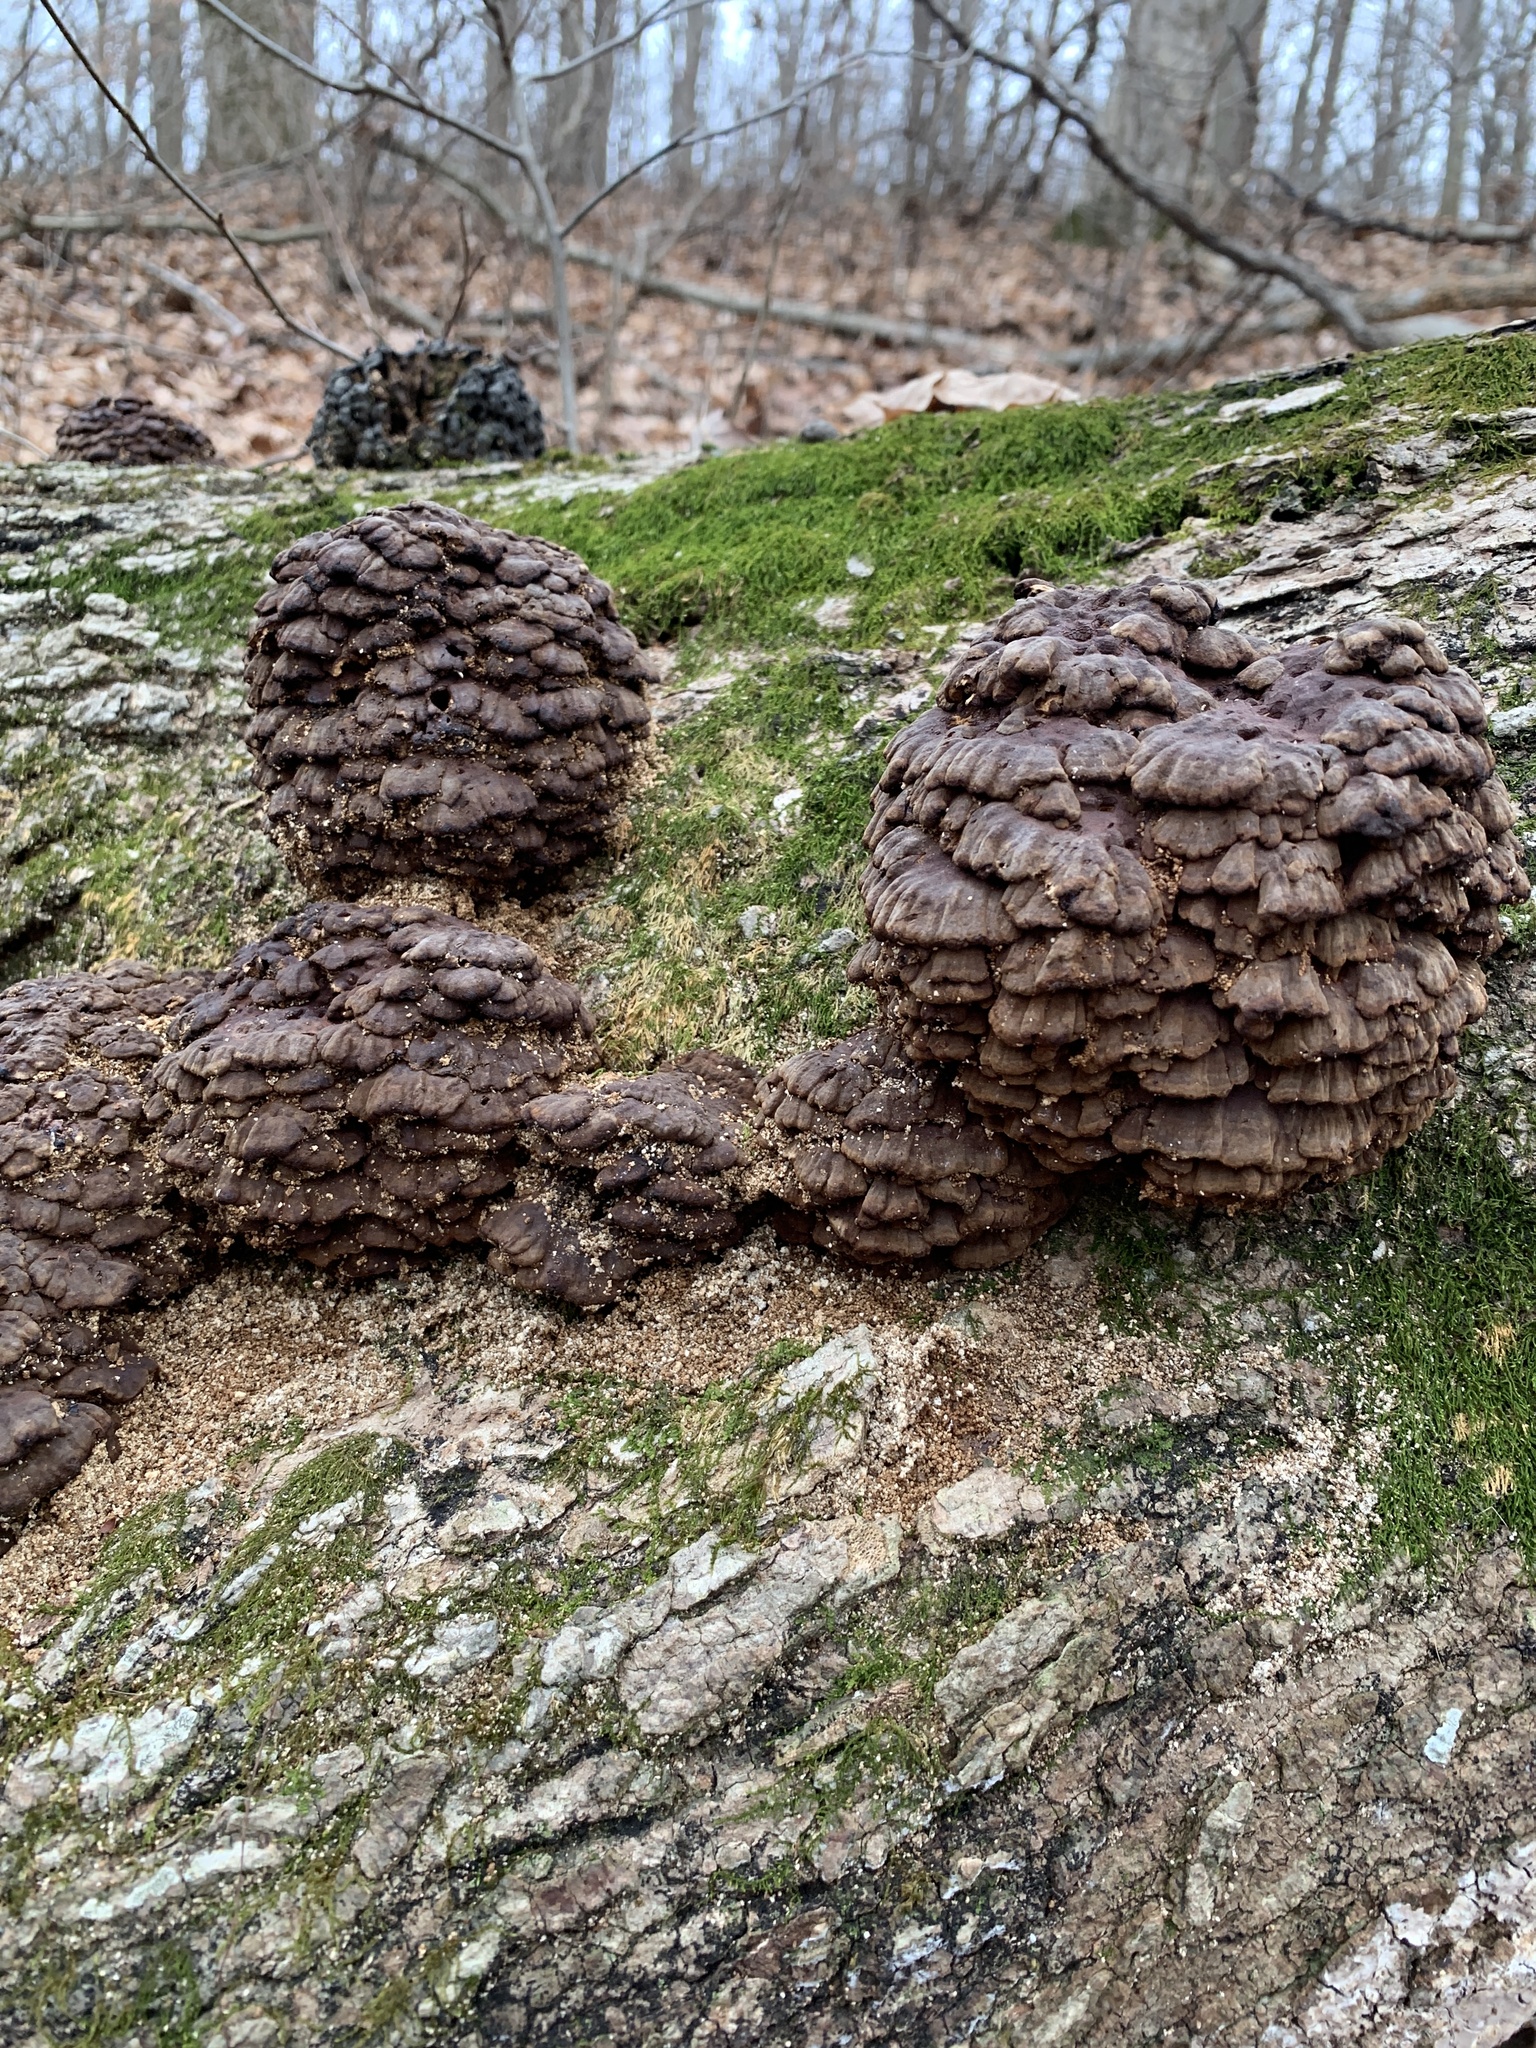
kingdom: Fungi
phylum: Basidiomycota
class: Agaricomycetes
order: Polyporales
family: Polyporaceae
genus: Globifomes
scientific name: Globifomes graveolens
